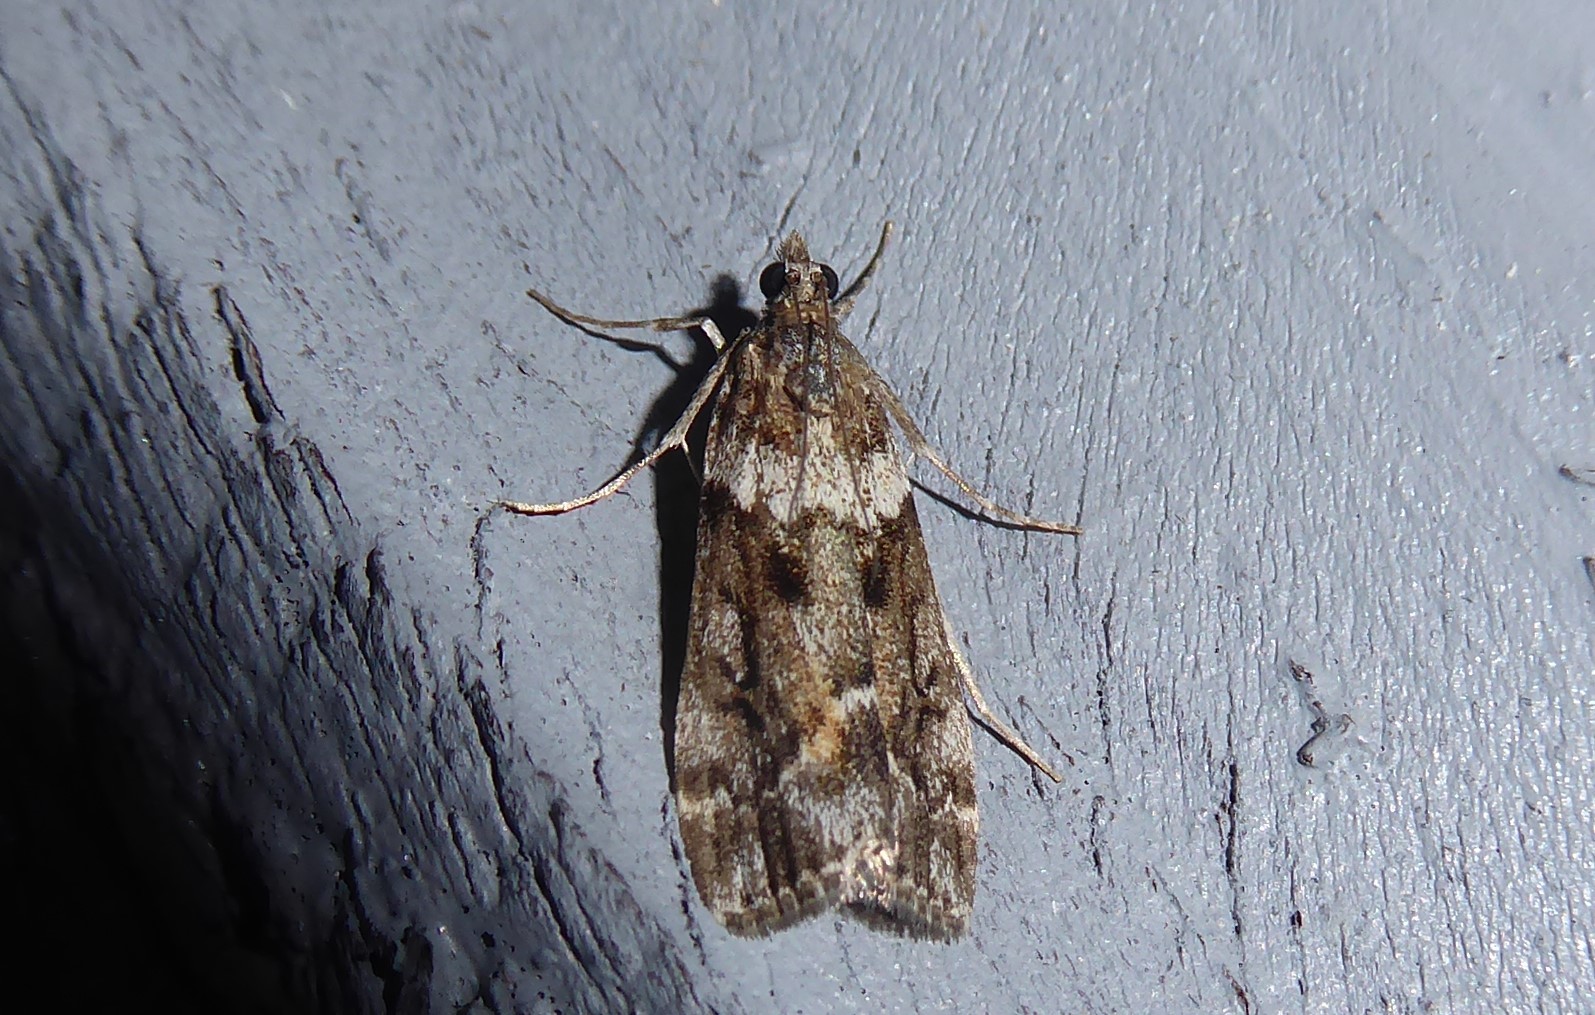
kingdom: Animalia
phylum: Arthropoda
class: Insecta
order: Lepidoptera
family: Crambidae
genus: Eudonia
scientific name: Eudonia submarginalis
